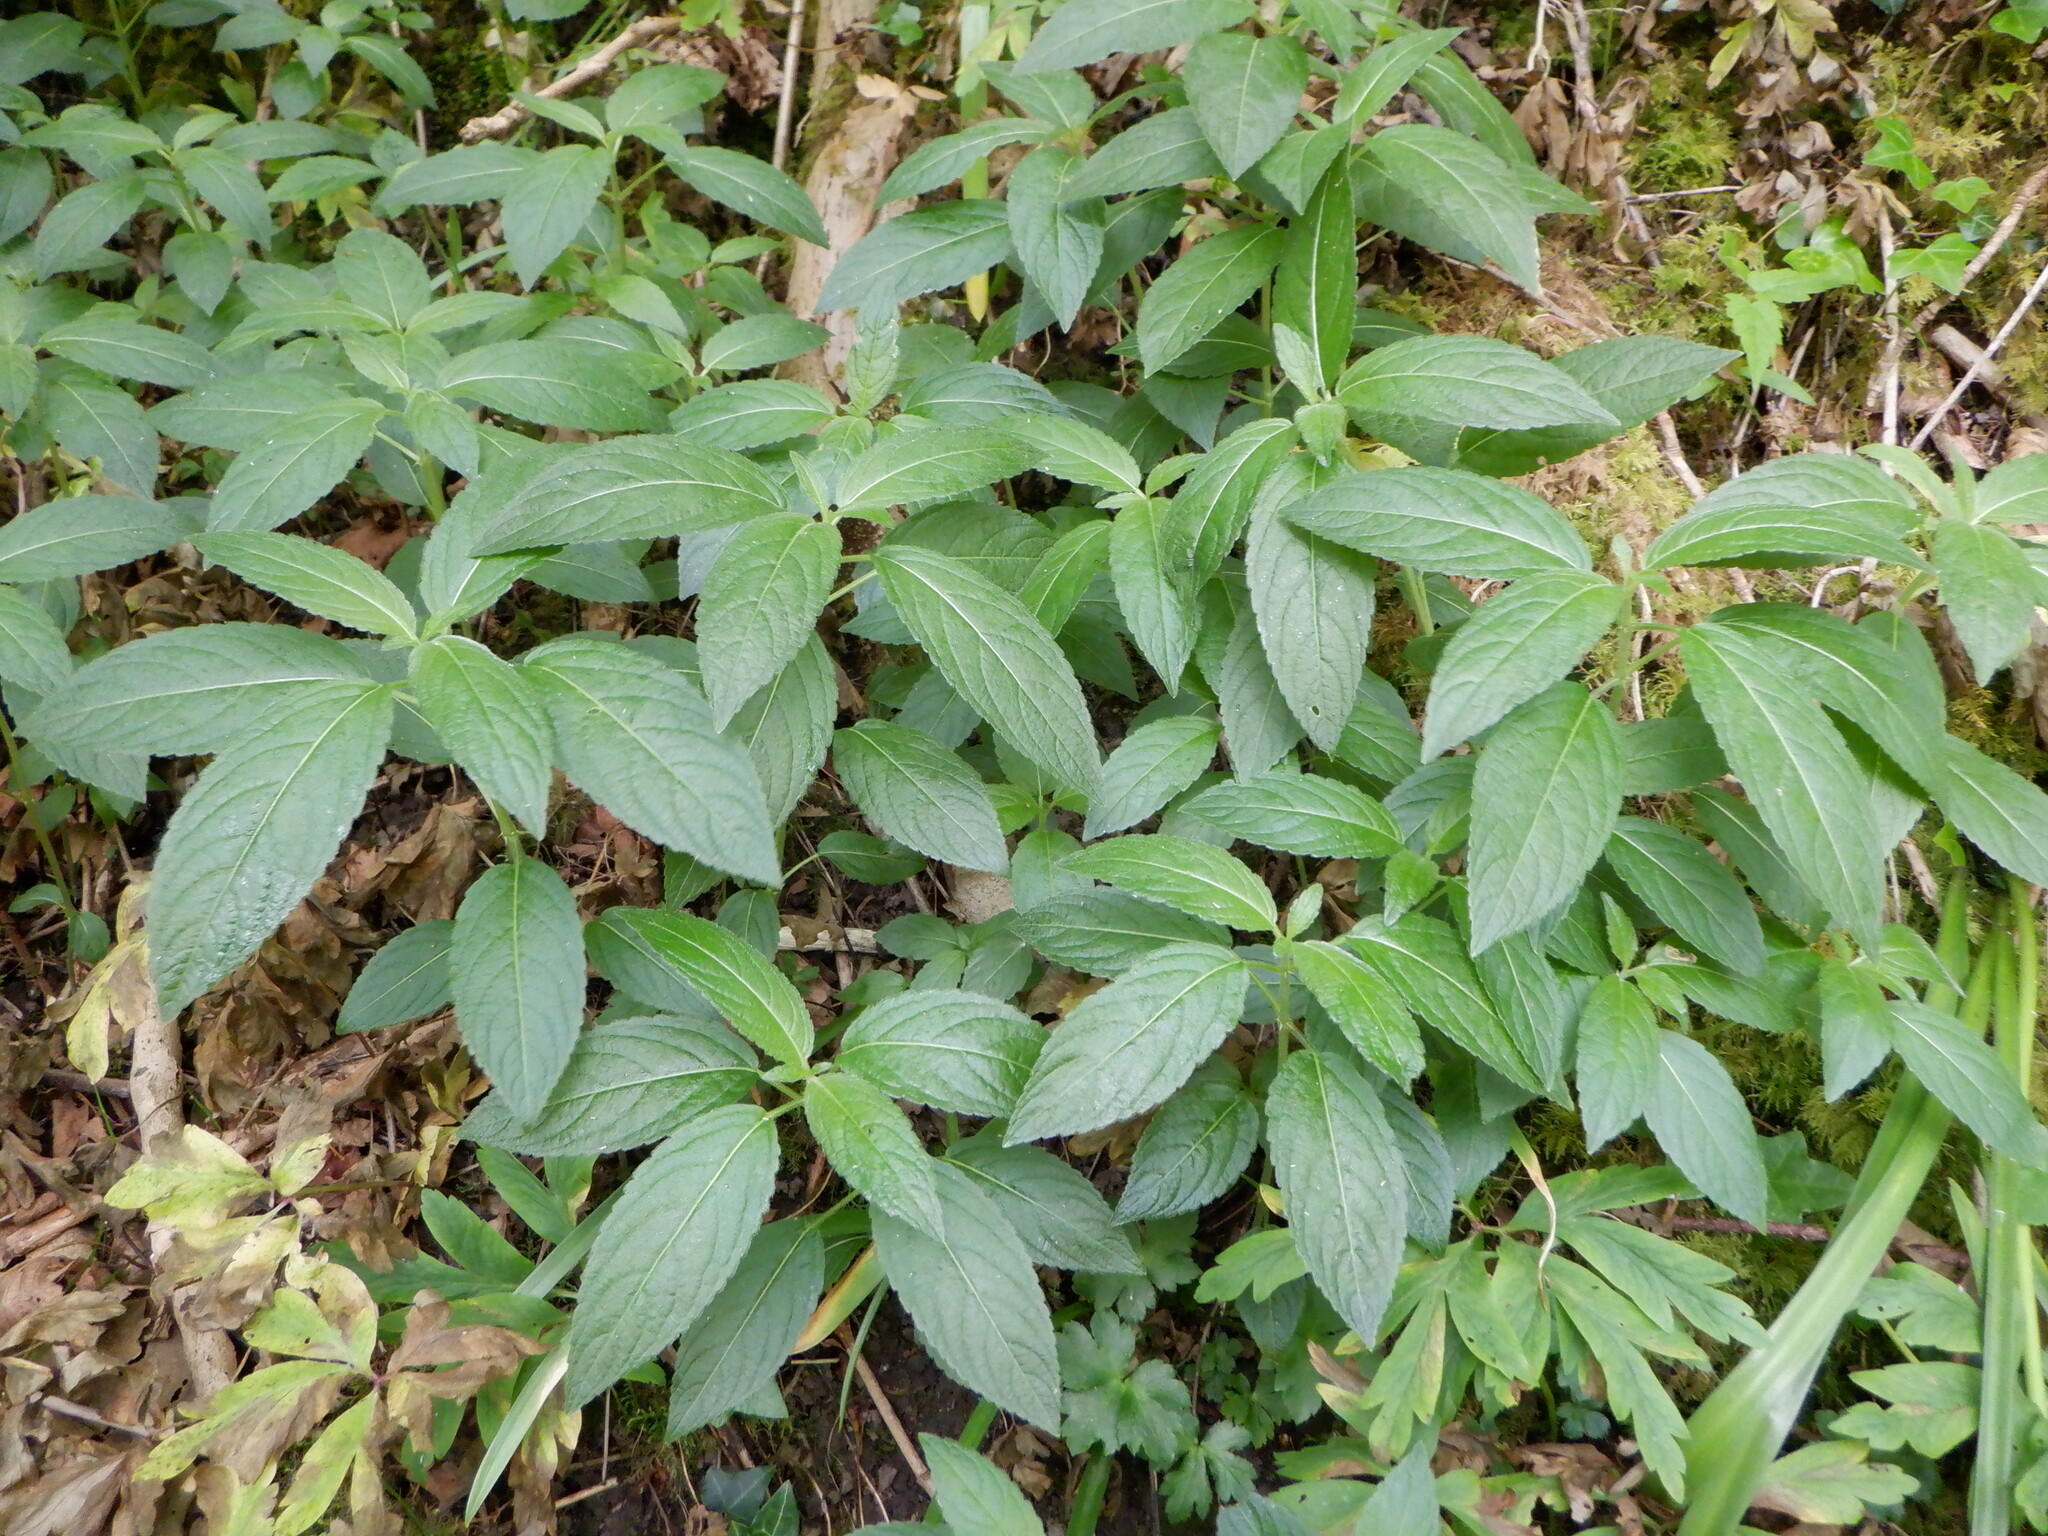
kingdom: Plantae
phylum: Tracheophyta
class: Magnoliopsida
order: Malpighiales
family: Euphorbiaceae
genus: Mercurialis
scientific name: Mercurialis perennis
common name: Dog mercury
